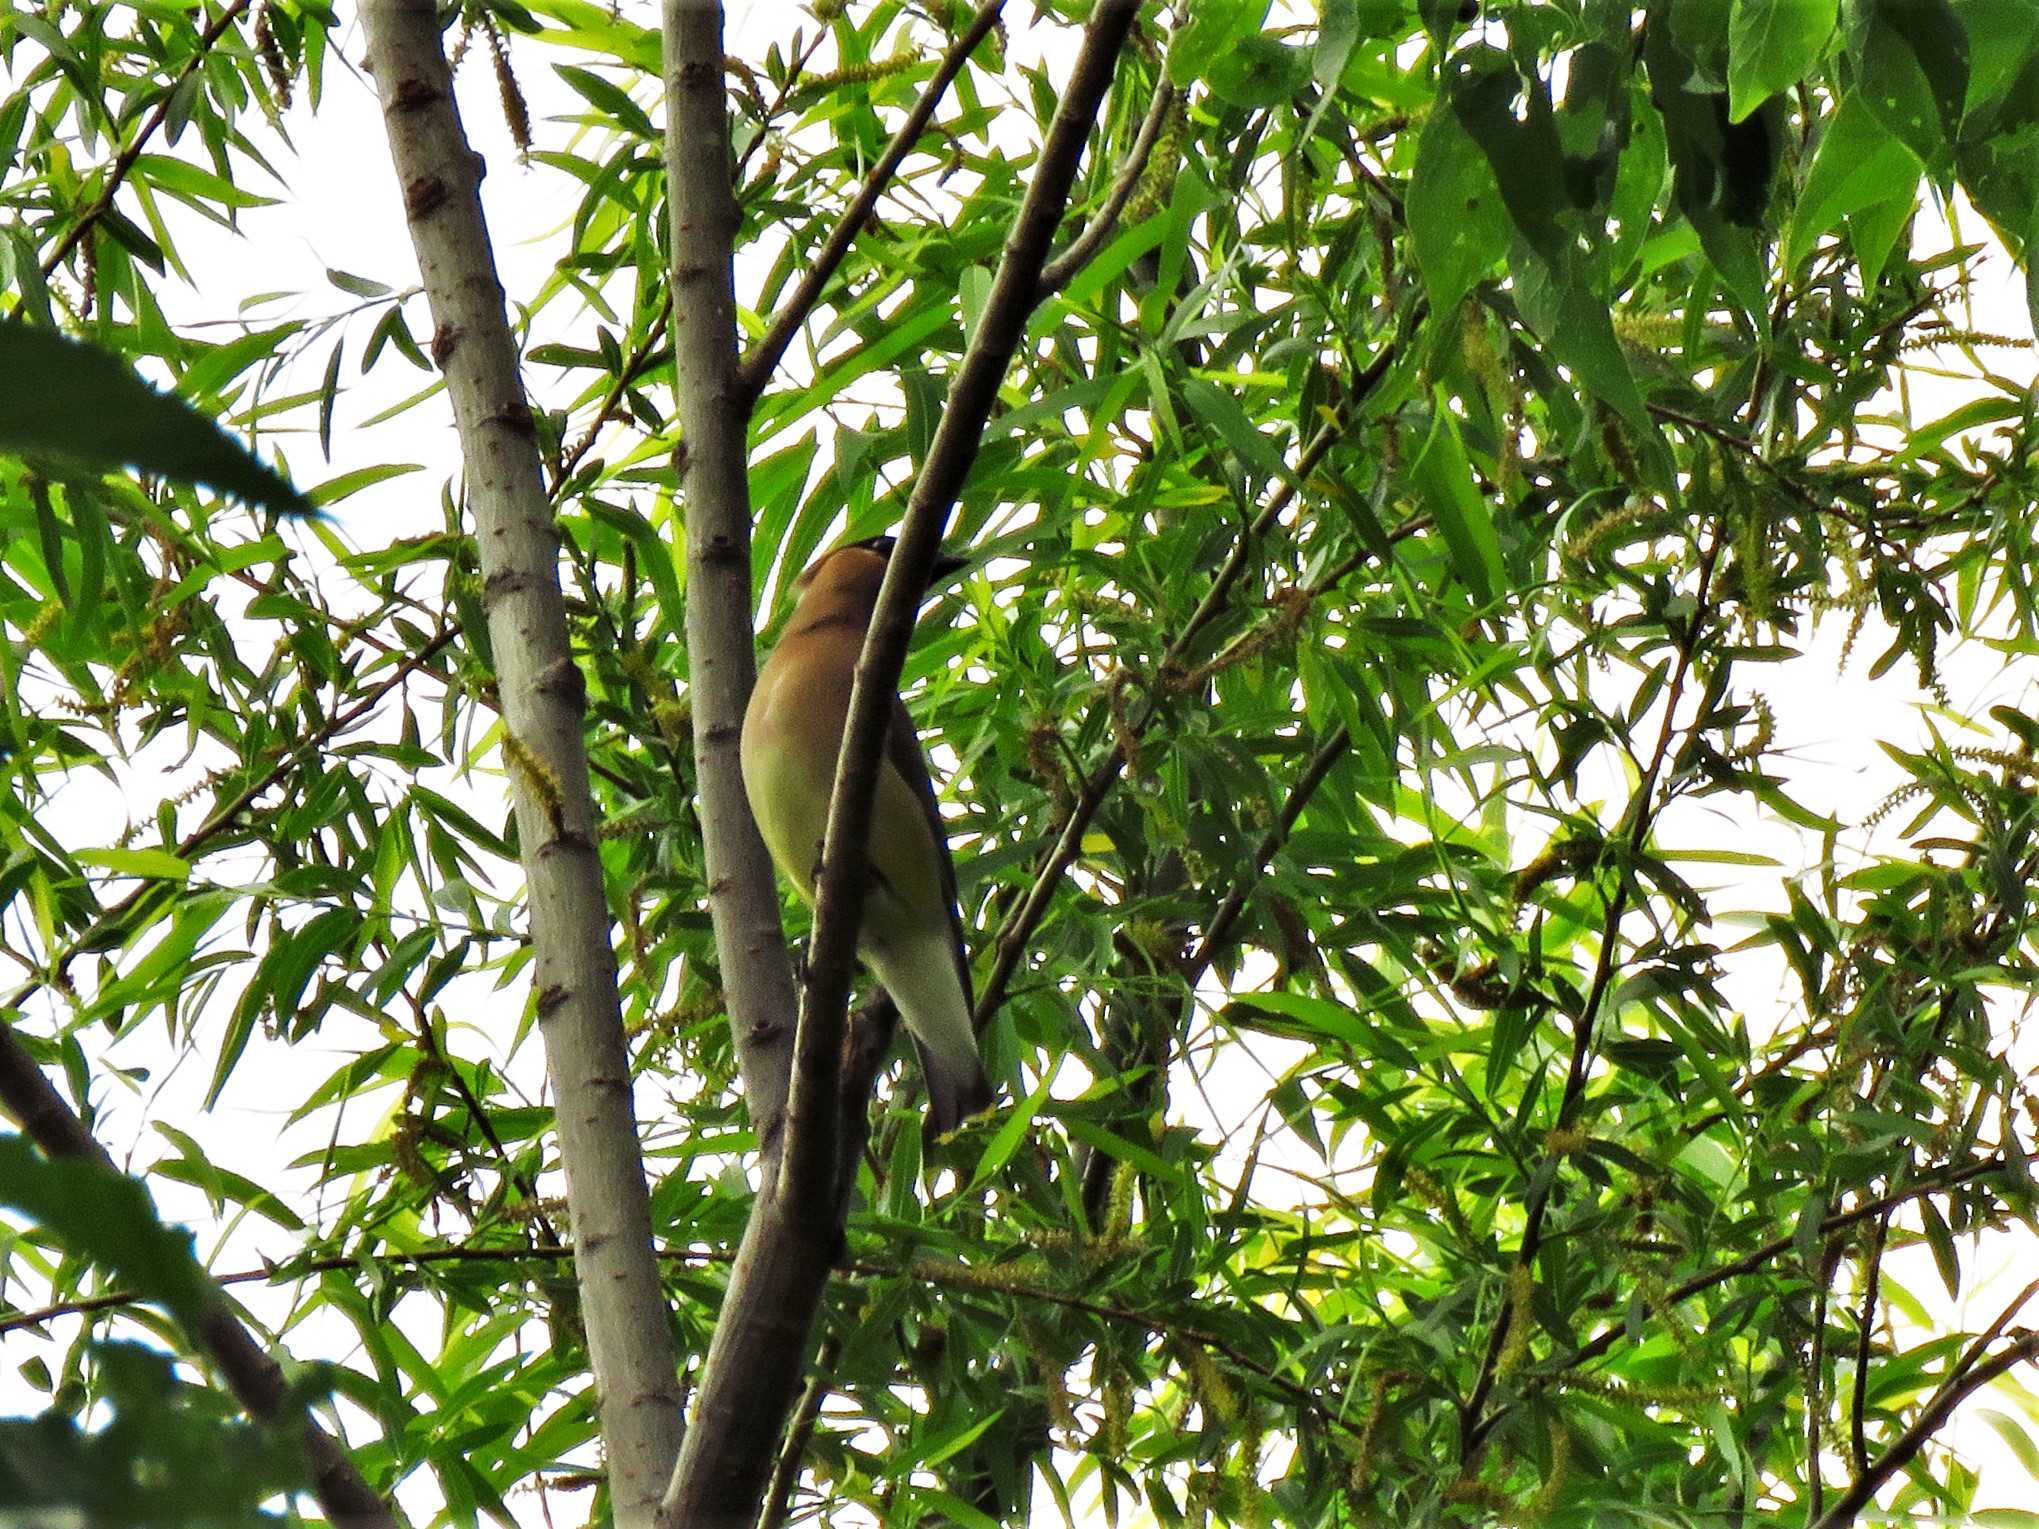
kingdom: Animalia
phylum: Chordata
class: Aves
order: Passeriformes
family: Bombycillidae
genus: Bombycilla
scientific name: Bombycilla cedrorum
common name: Cedar waxwing
